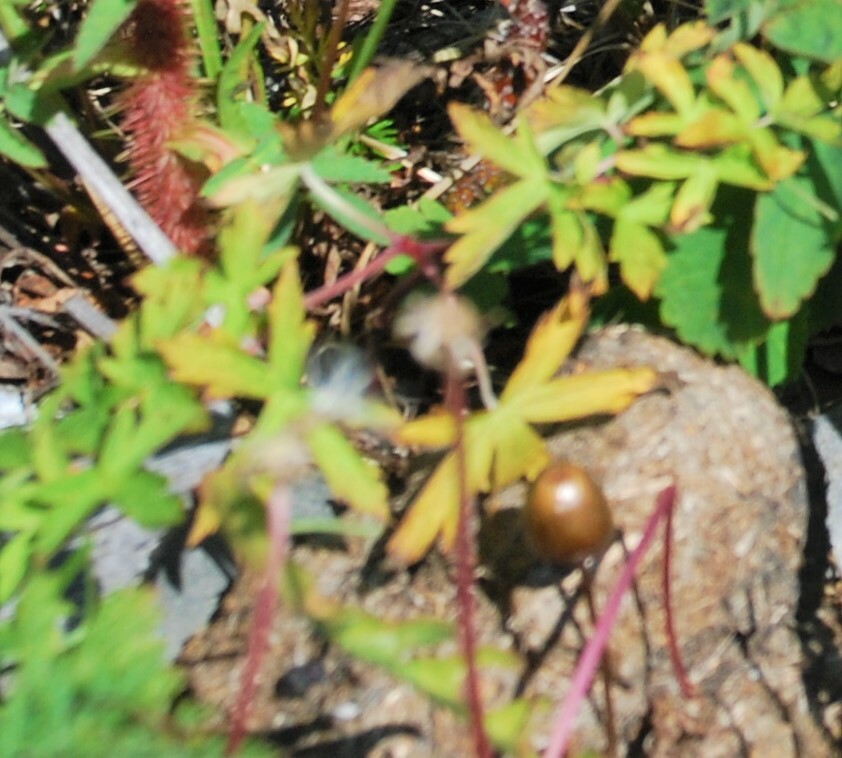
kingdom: Plantae
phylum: Tracheophyta
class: Magnoliopsida
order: Geraniales
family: Geraniaceae
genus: Geranium
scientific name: Geranium sibiricum
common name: Siberian crane's-bill
